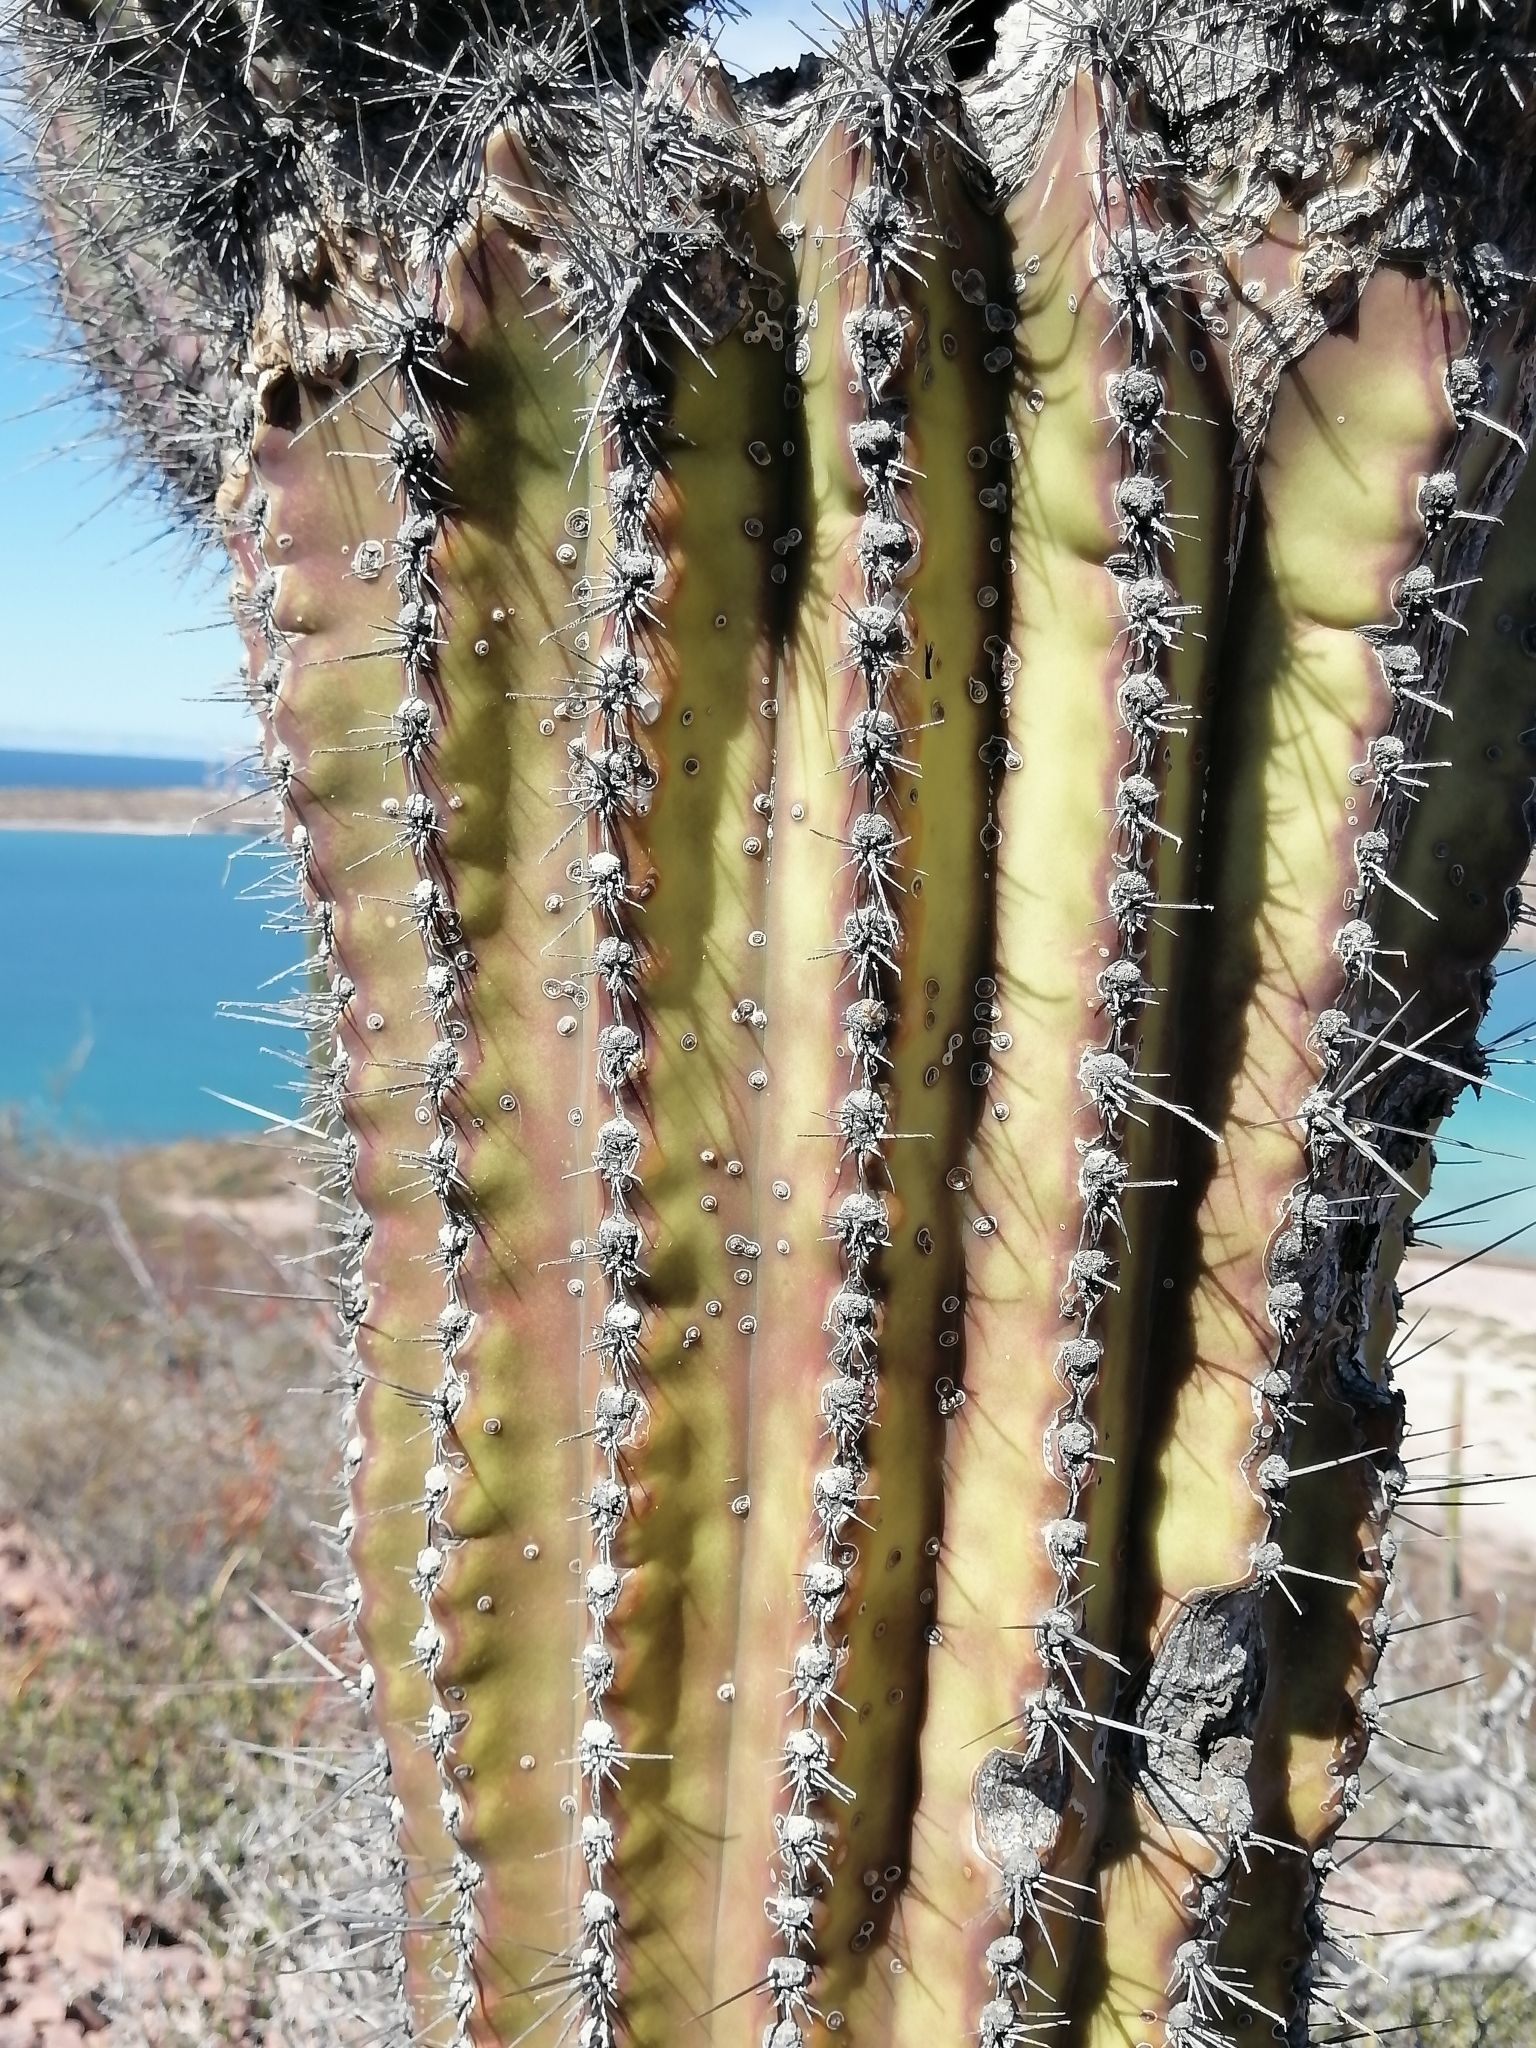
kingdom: Plantae
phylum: Tracheophyta
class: Magnoliopsida
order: Caryophyllales
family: Cactaceae
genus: Pachycereus
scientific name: Pachycereus pringlei
